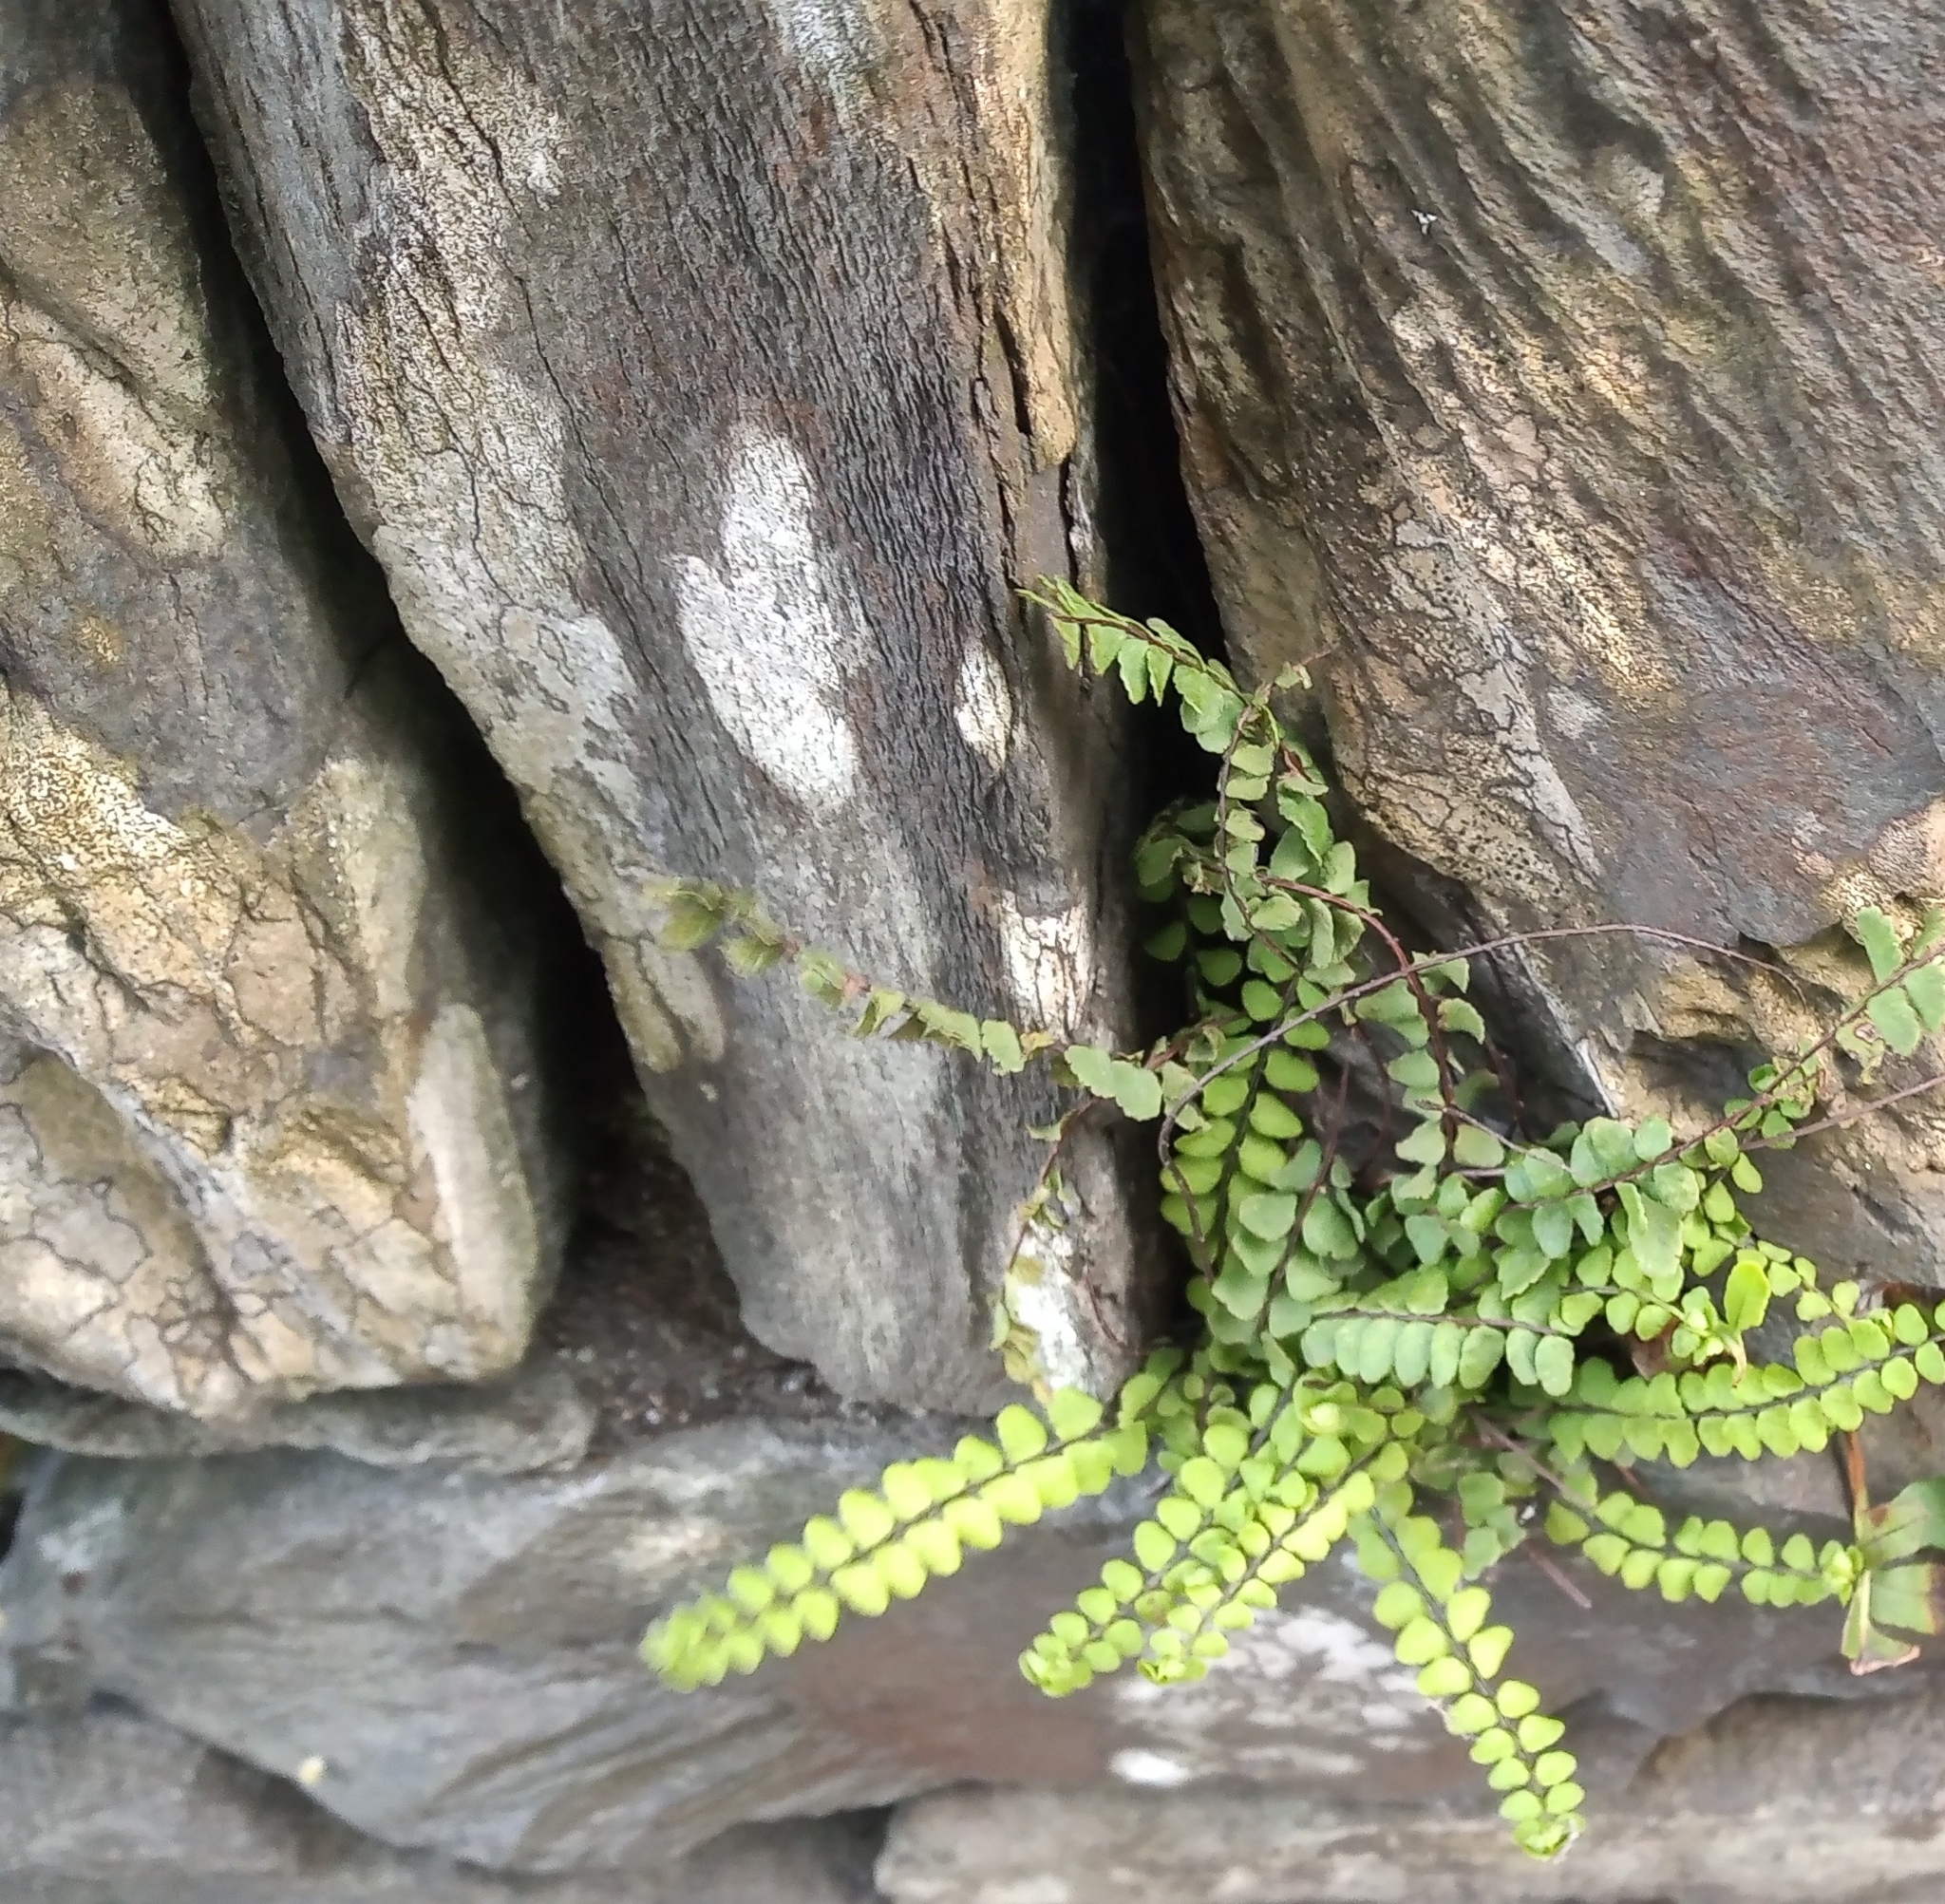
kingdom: Plantae
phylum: Tracheophyta
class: Polypodiopsida
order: Polypodiales
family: Aspleniaceae
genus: Asplenium
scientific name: Asplenium trichomanes
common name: Maidenhair spleenwort
